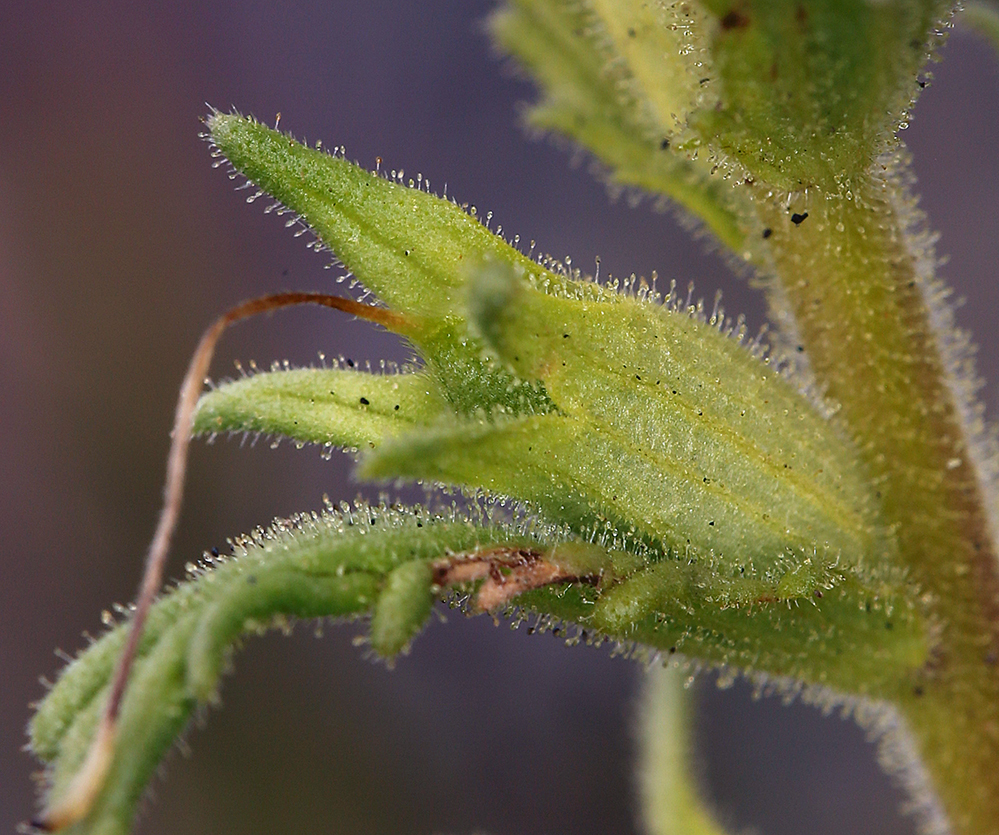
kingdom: Plantae
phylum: Tracheophyta
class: Magnoliopsida
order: Lamiales
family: Orobanchaceae
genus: Bellardia
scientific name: Bellardia viscosa
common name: Sticky parentucellia
